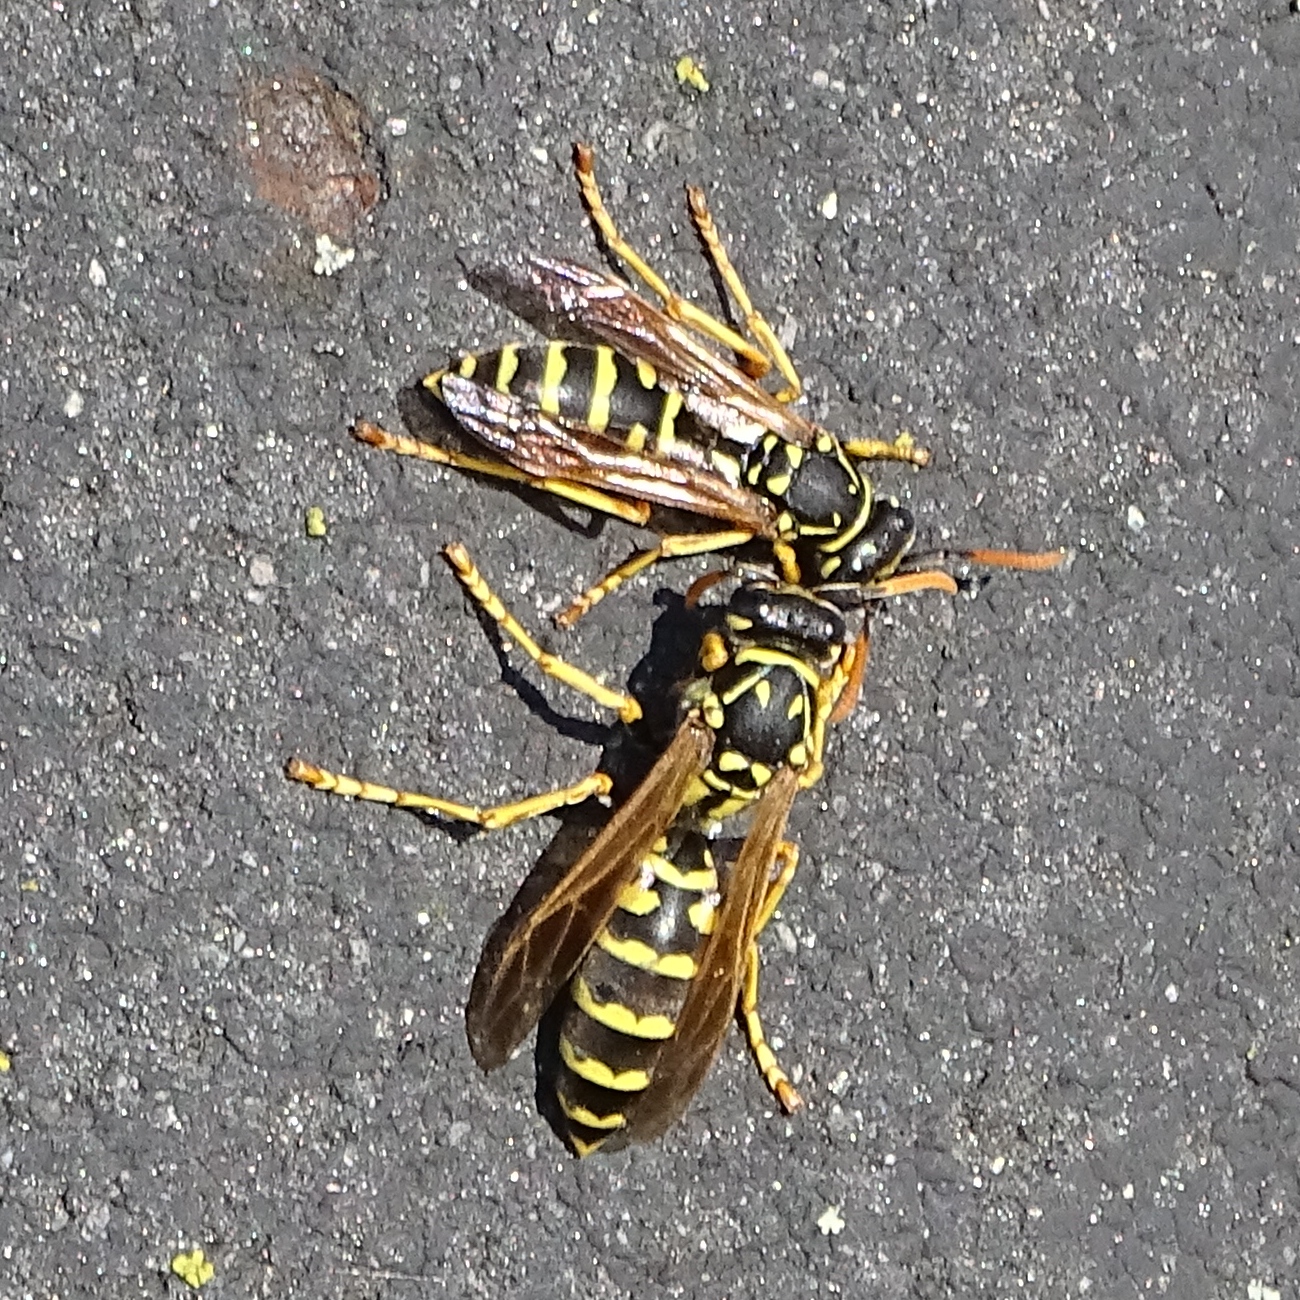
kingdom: Animalia
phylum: Arthropoda
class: Insecta
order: Hymenoptera
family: Eumenidae
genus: Polistes
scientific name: Polistes dominula
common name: Paper wasp
